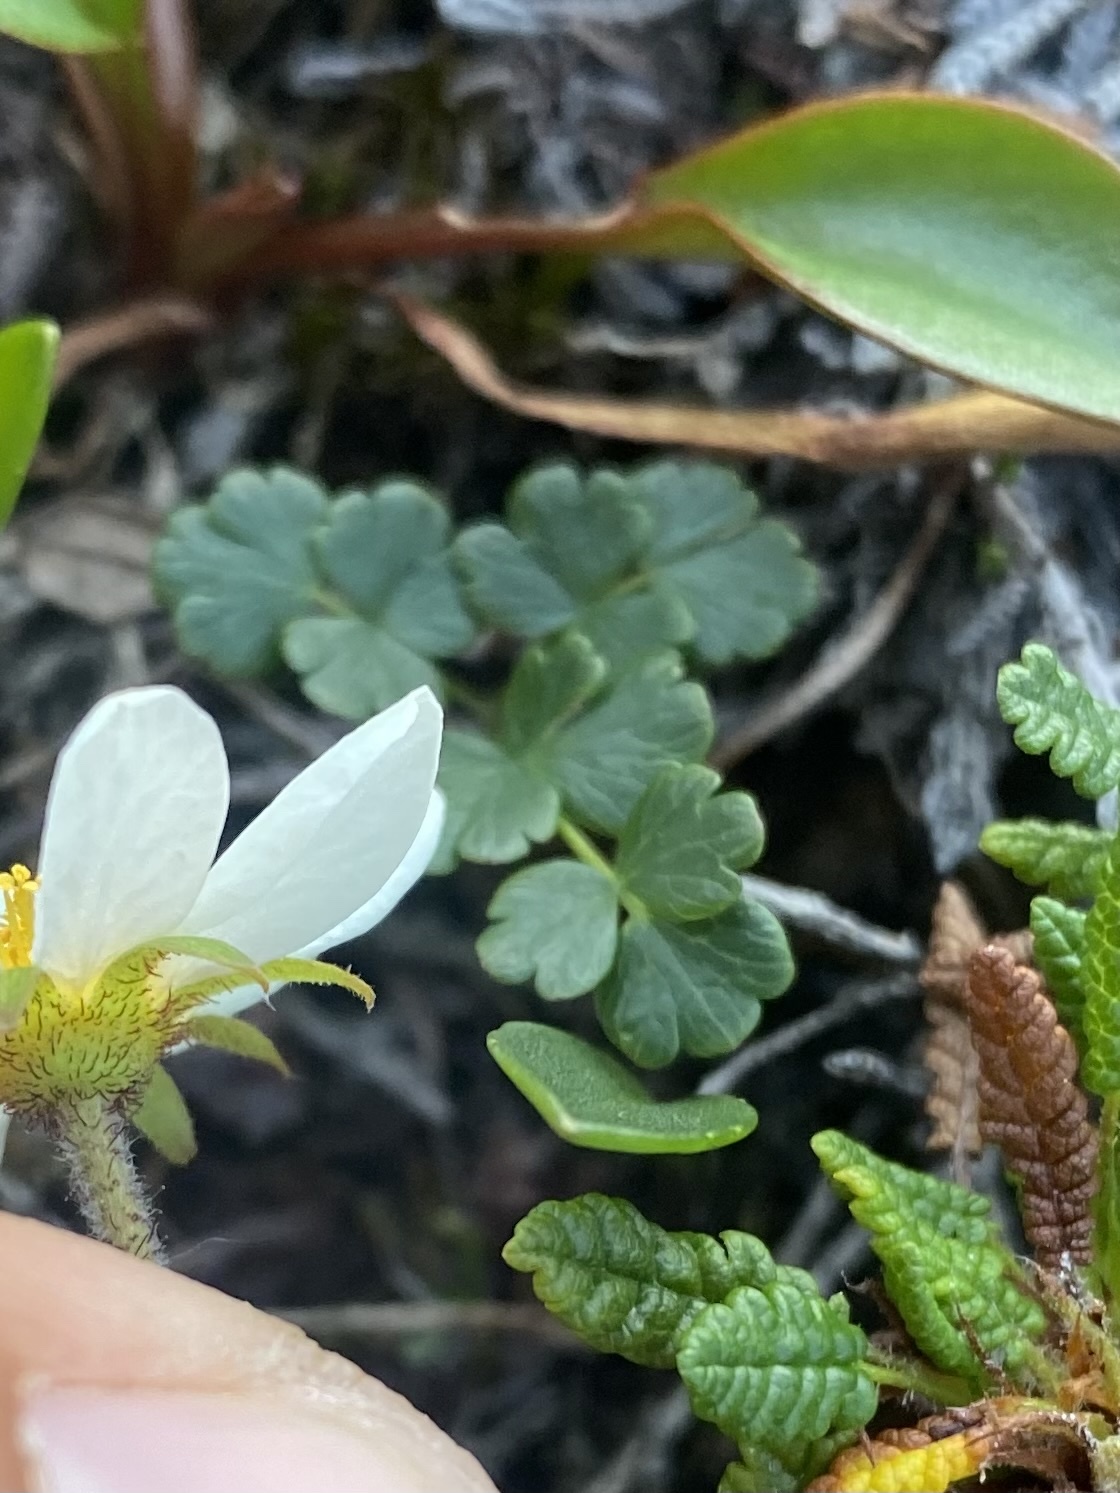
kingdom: Plantae
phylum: Tracheophyta
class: Magnoliopsida
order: Ranunculales
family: Ranunculaceae
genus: Thalictrum
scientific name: Thalictrum alpinum
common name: Alpine meadow-rue
